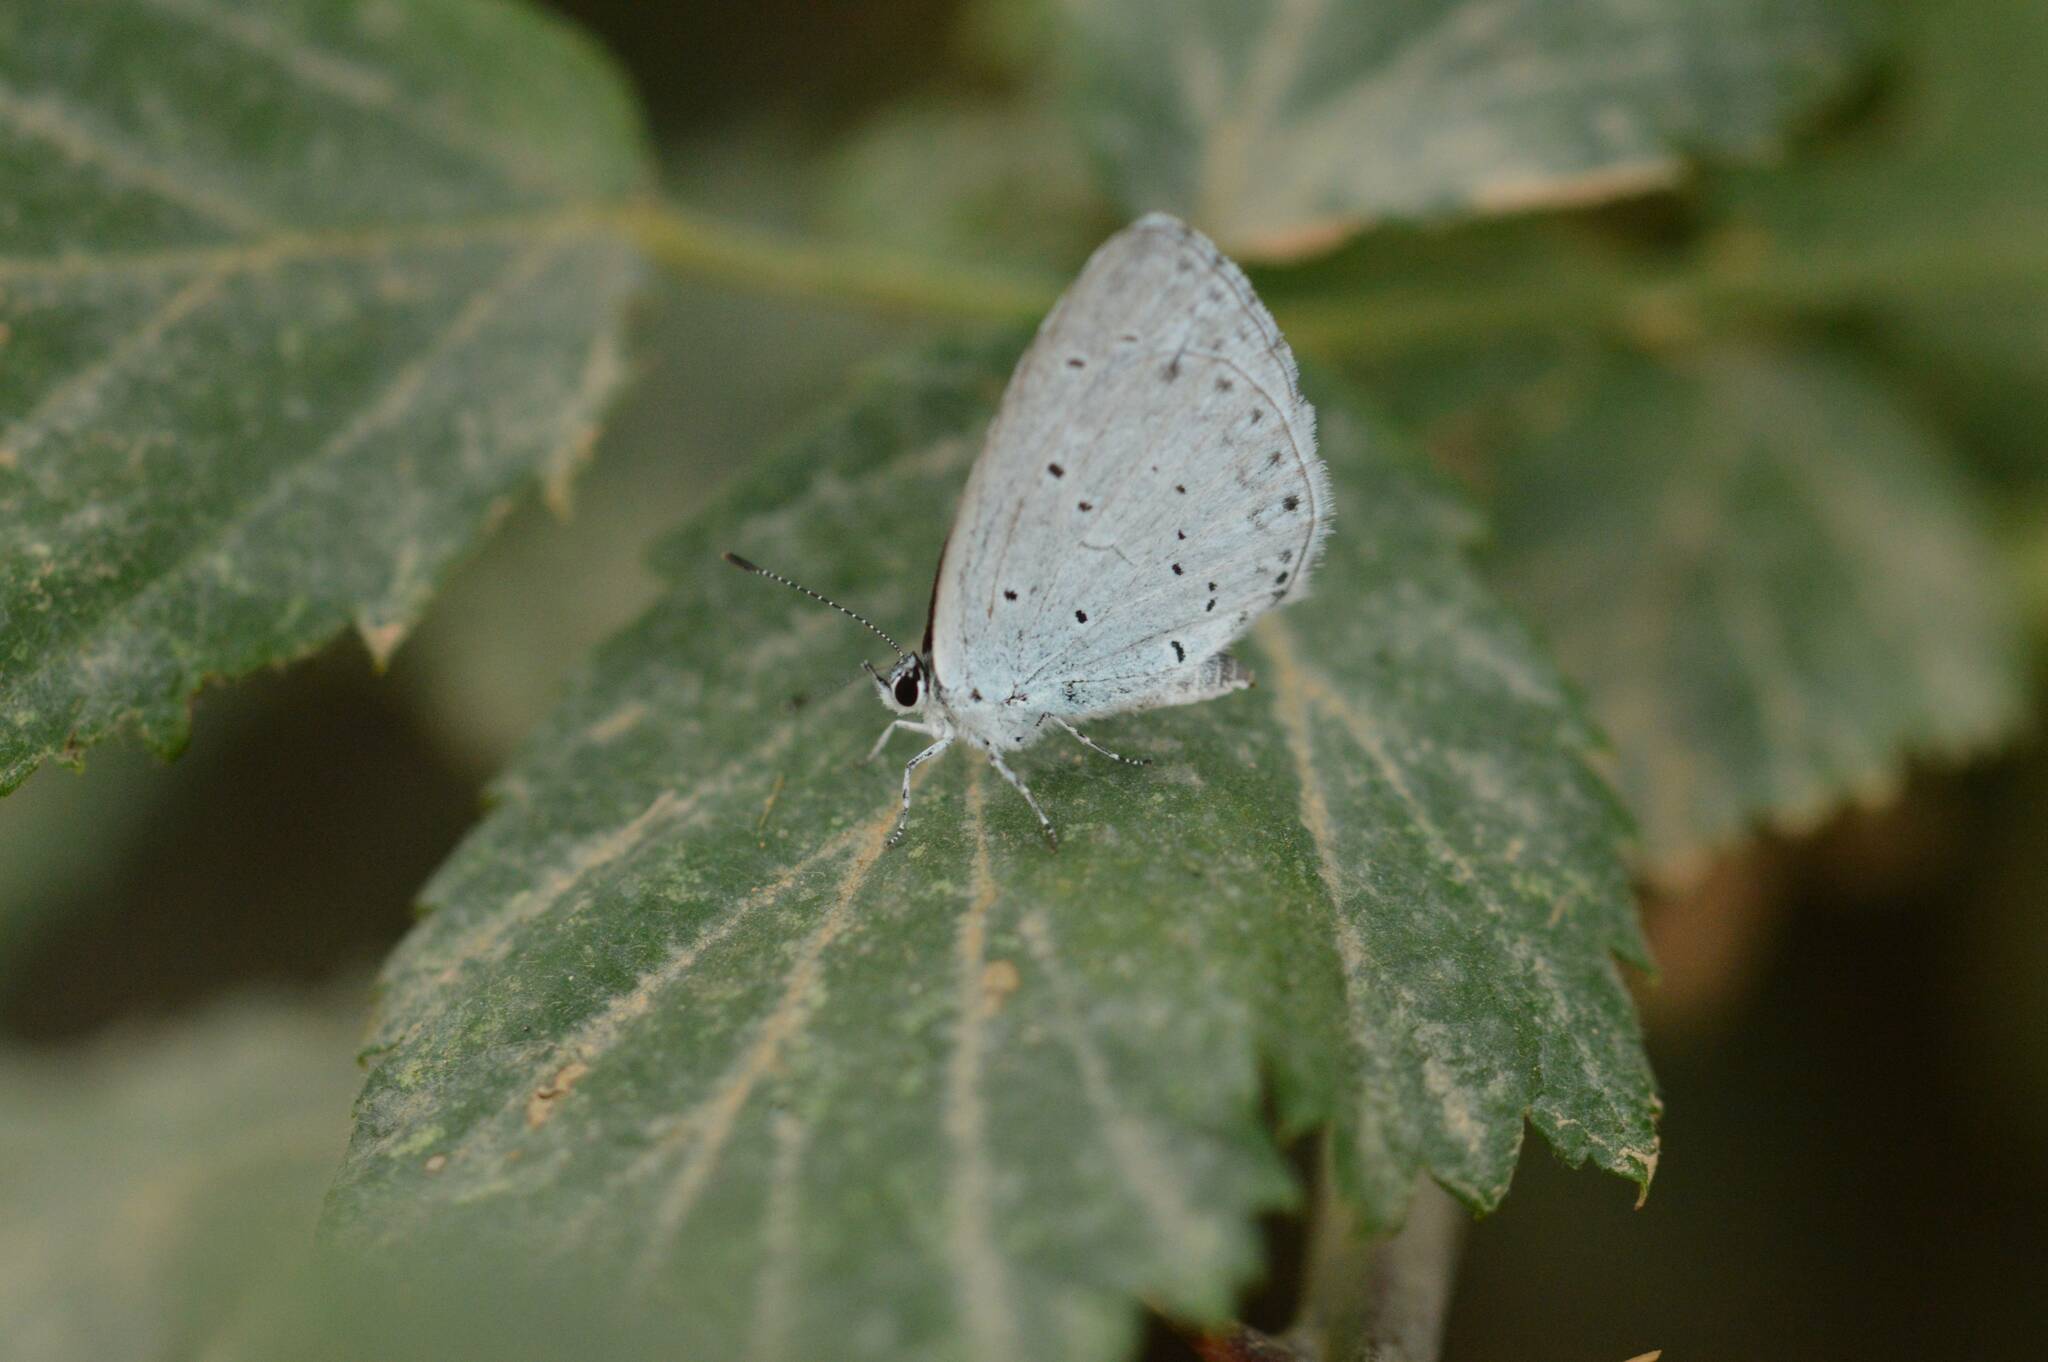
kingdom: Animalia
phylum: Arthropoda
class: Insecta
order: Lepidoptera
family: Lycaenidae
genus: Celastrina
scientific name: Celastrina argiolus
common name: Holly blue
